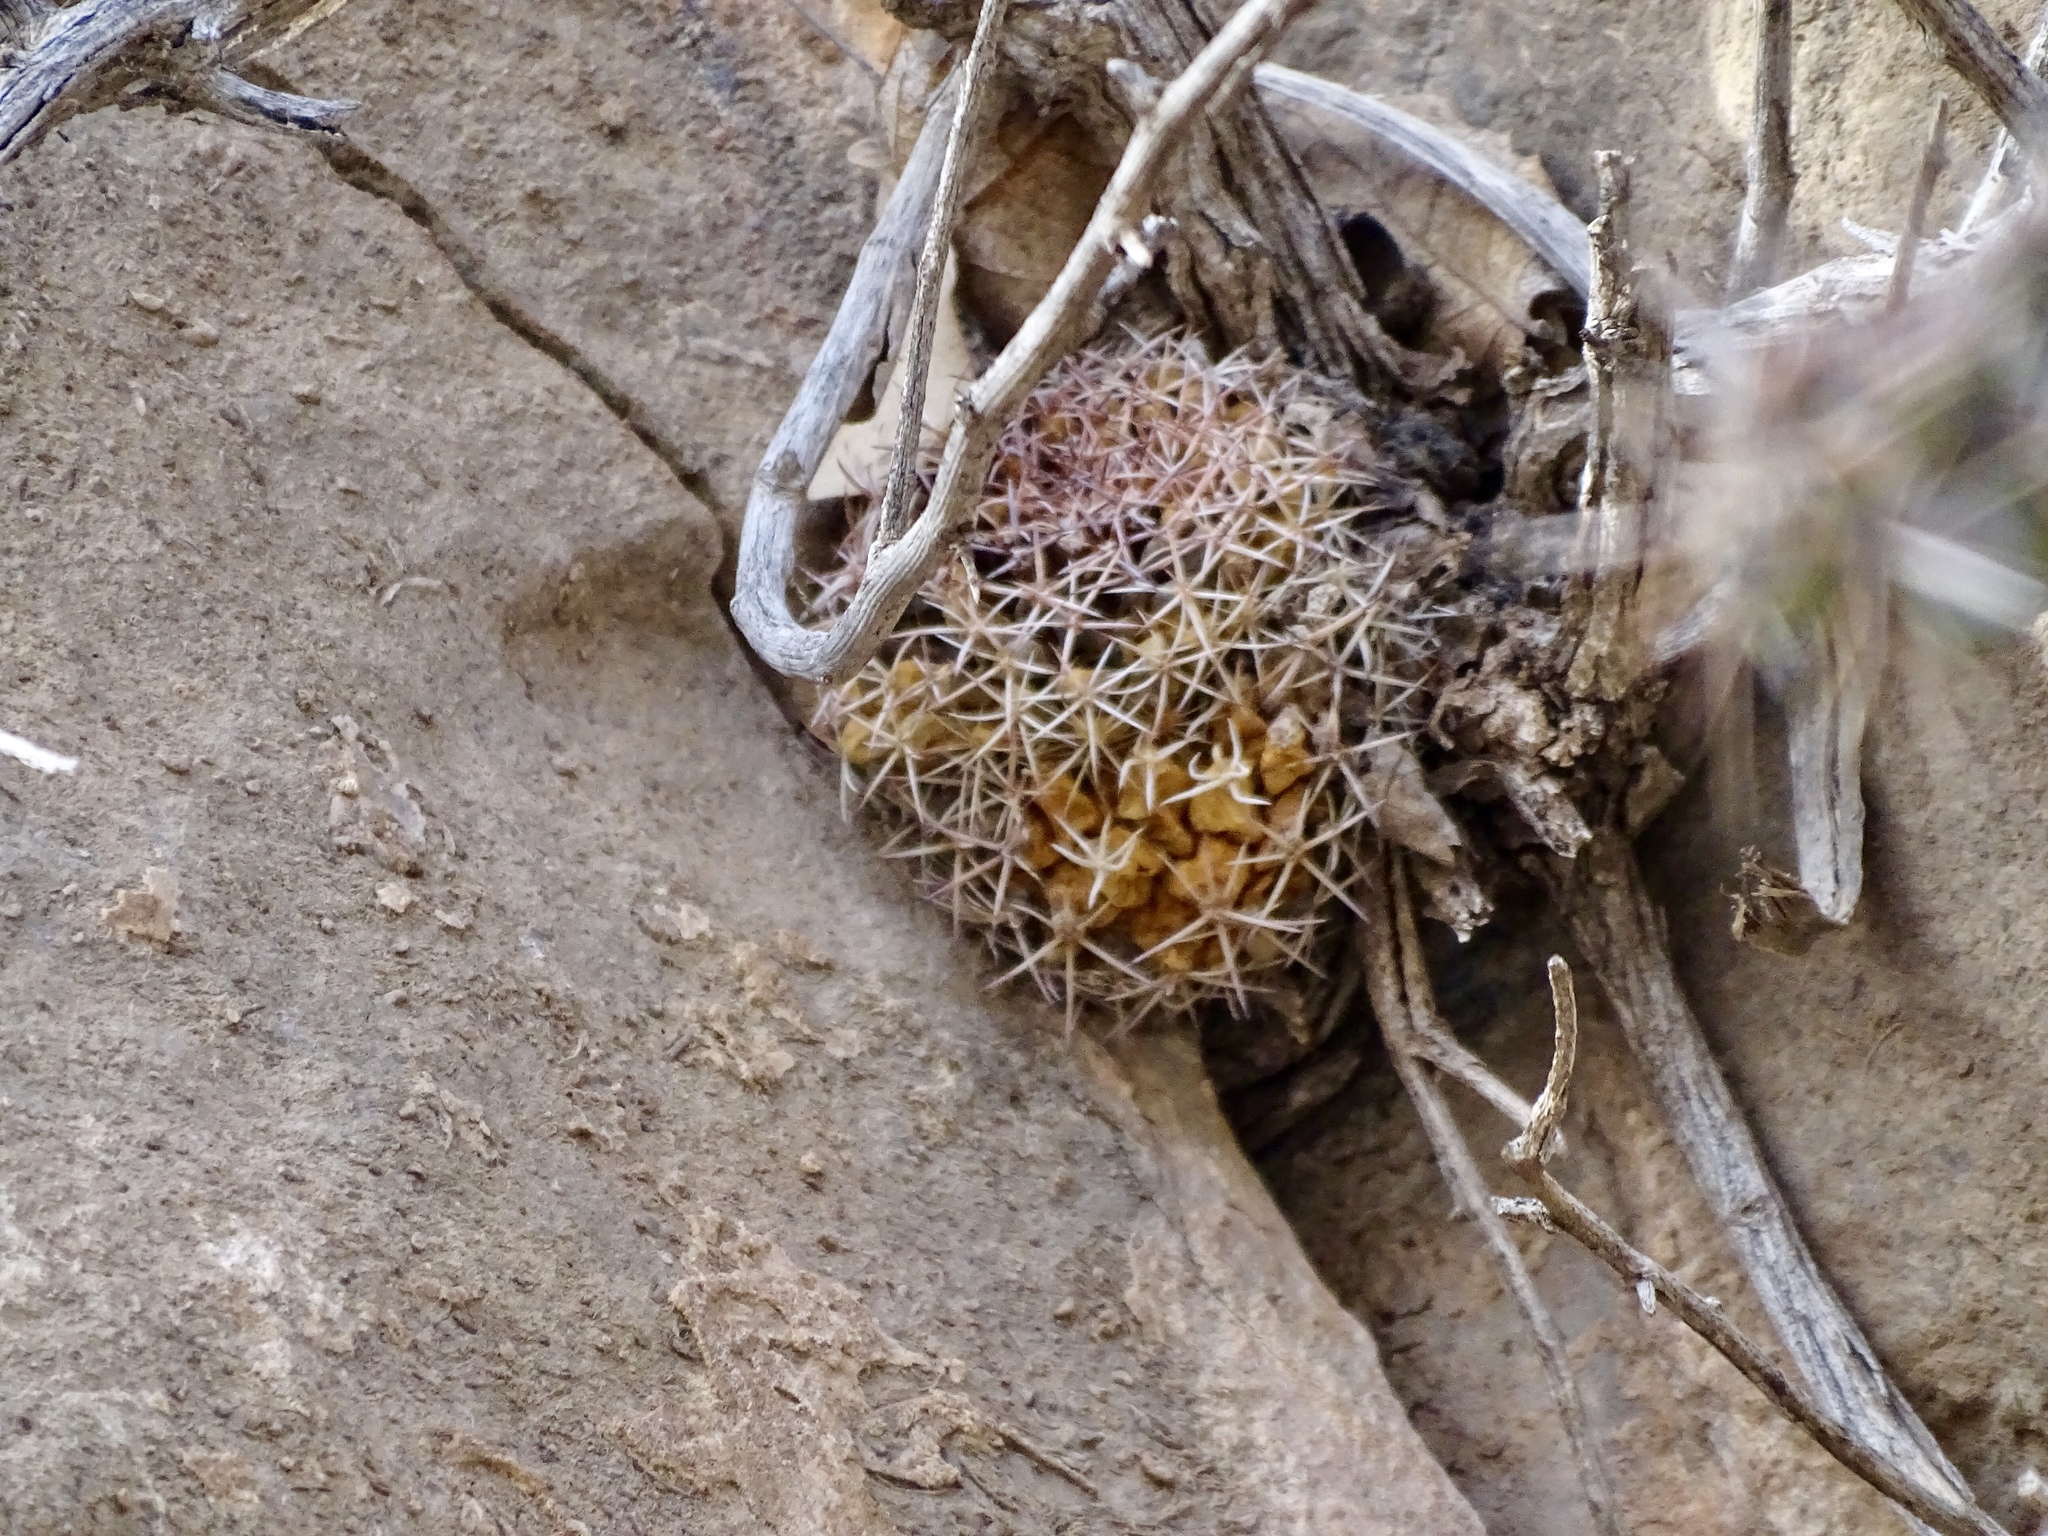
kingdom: Plantae
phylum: Tracheophyta
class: Magnoliopsida
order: Caryophyllales
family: Cactaceae
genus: Mammillaria
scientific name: Mammillaria heyderi
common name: Little nipple cactus
